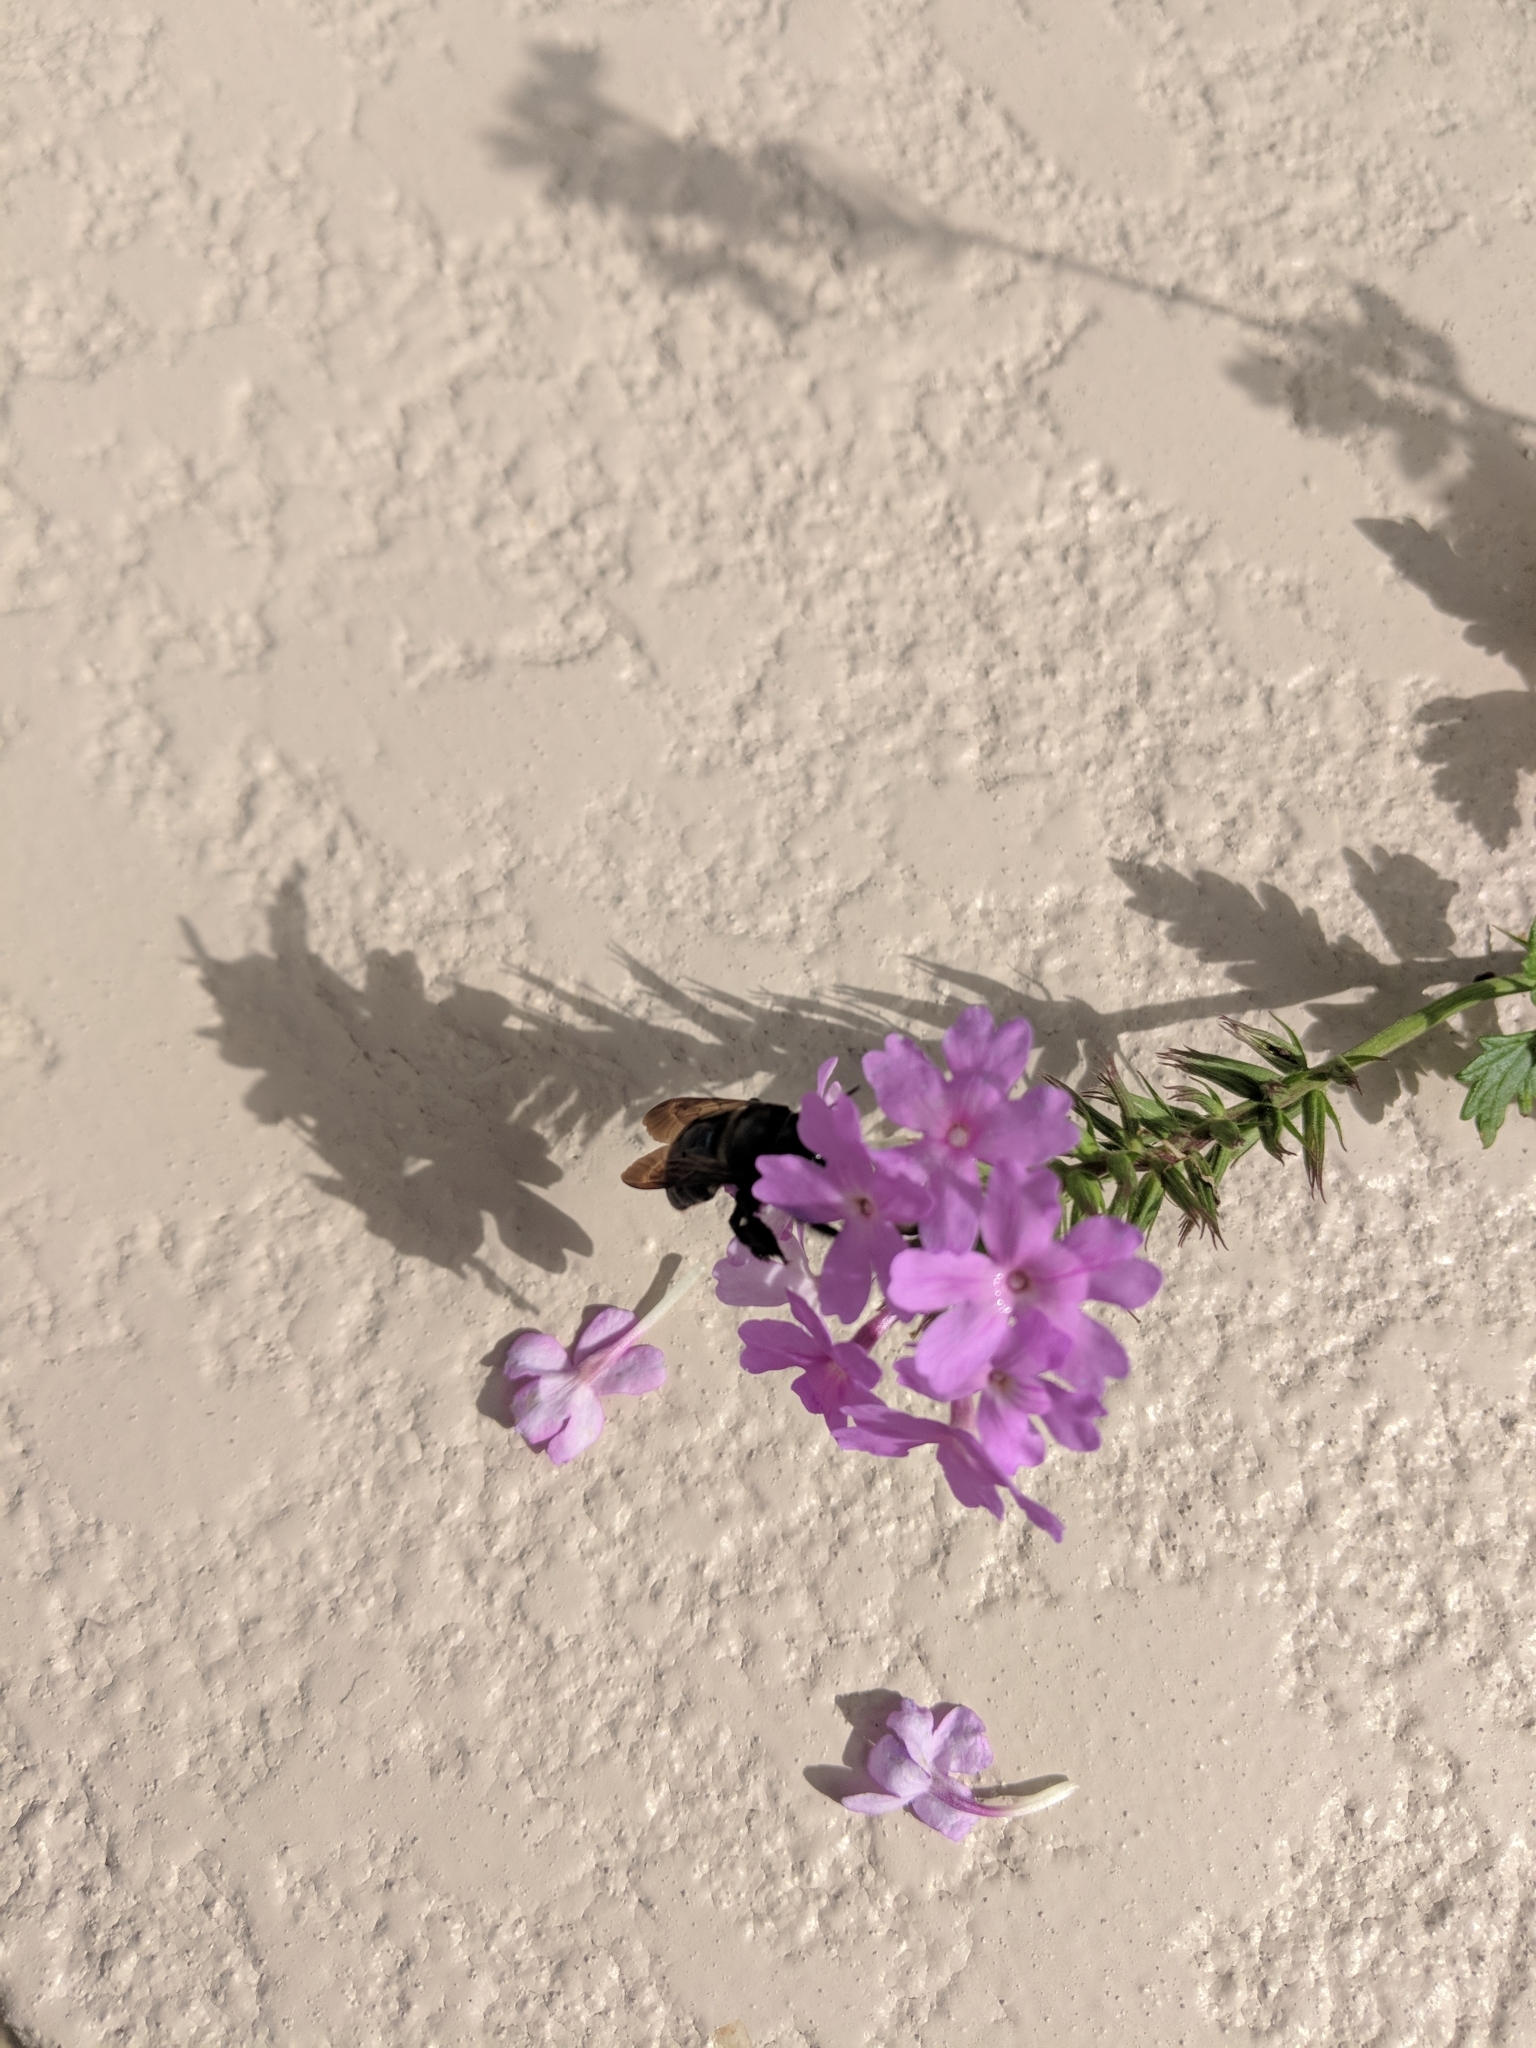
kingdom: Animalia
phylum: Arthropoda
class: Insecta
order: Hymenoptera
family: Apidae
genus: Xylocopa
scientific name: Xylocopa micans
